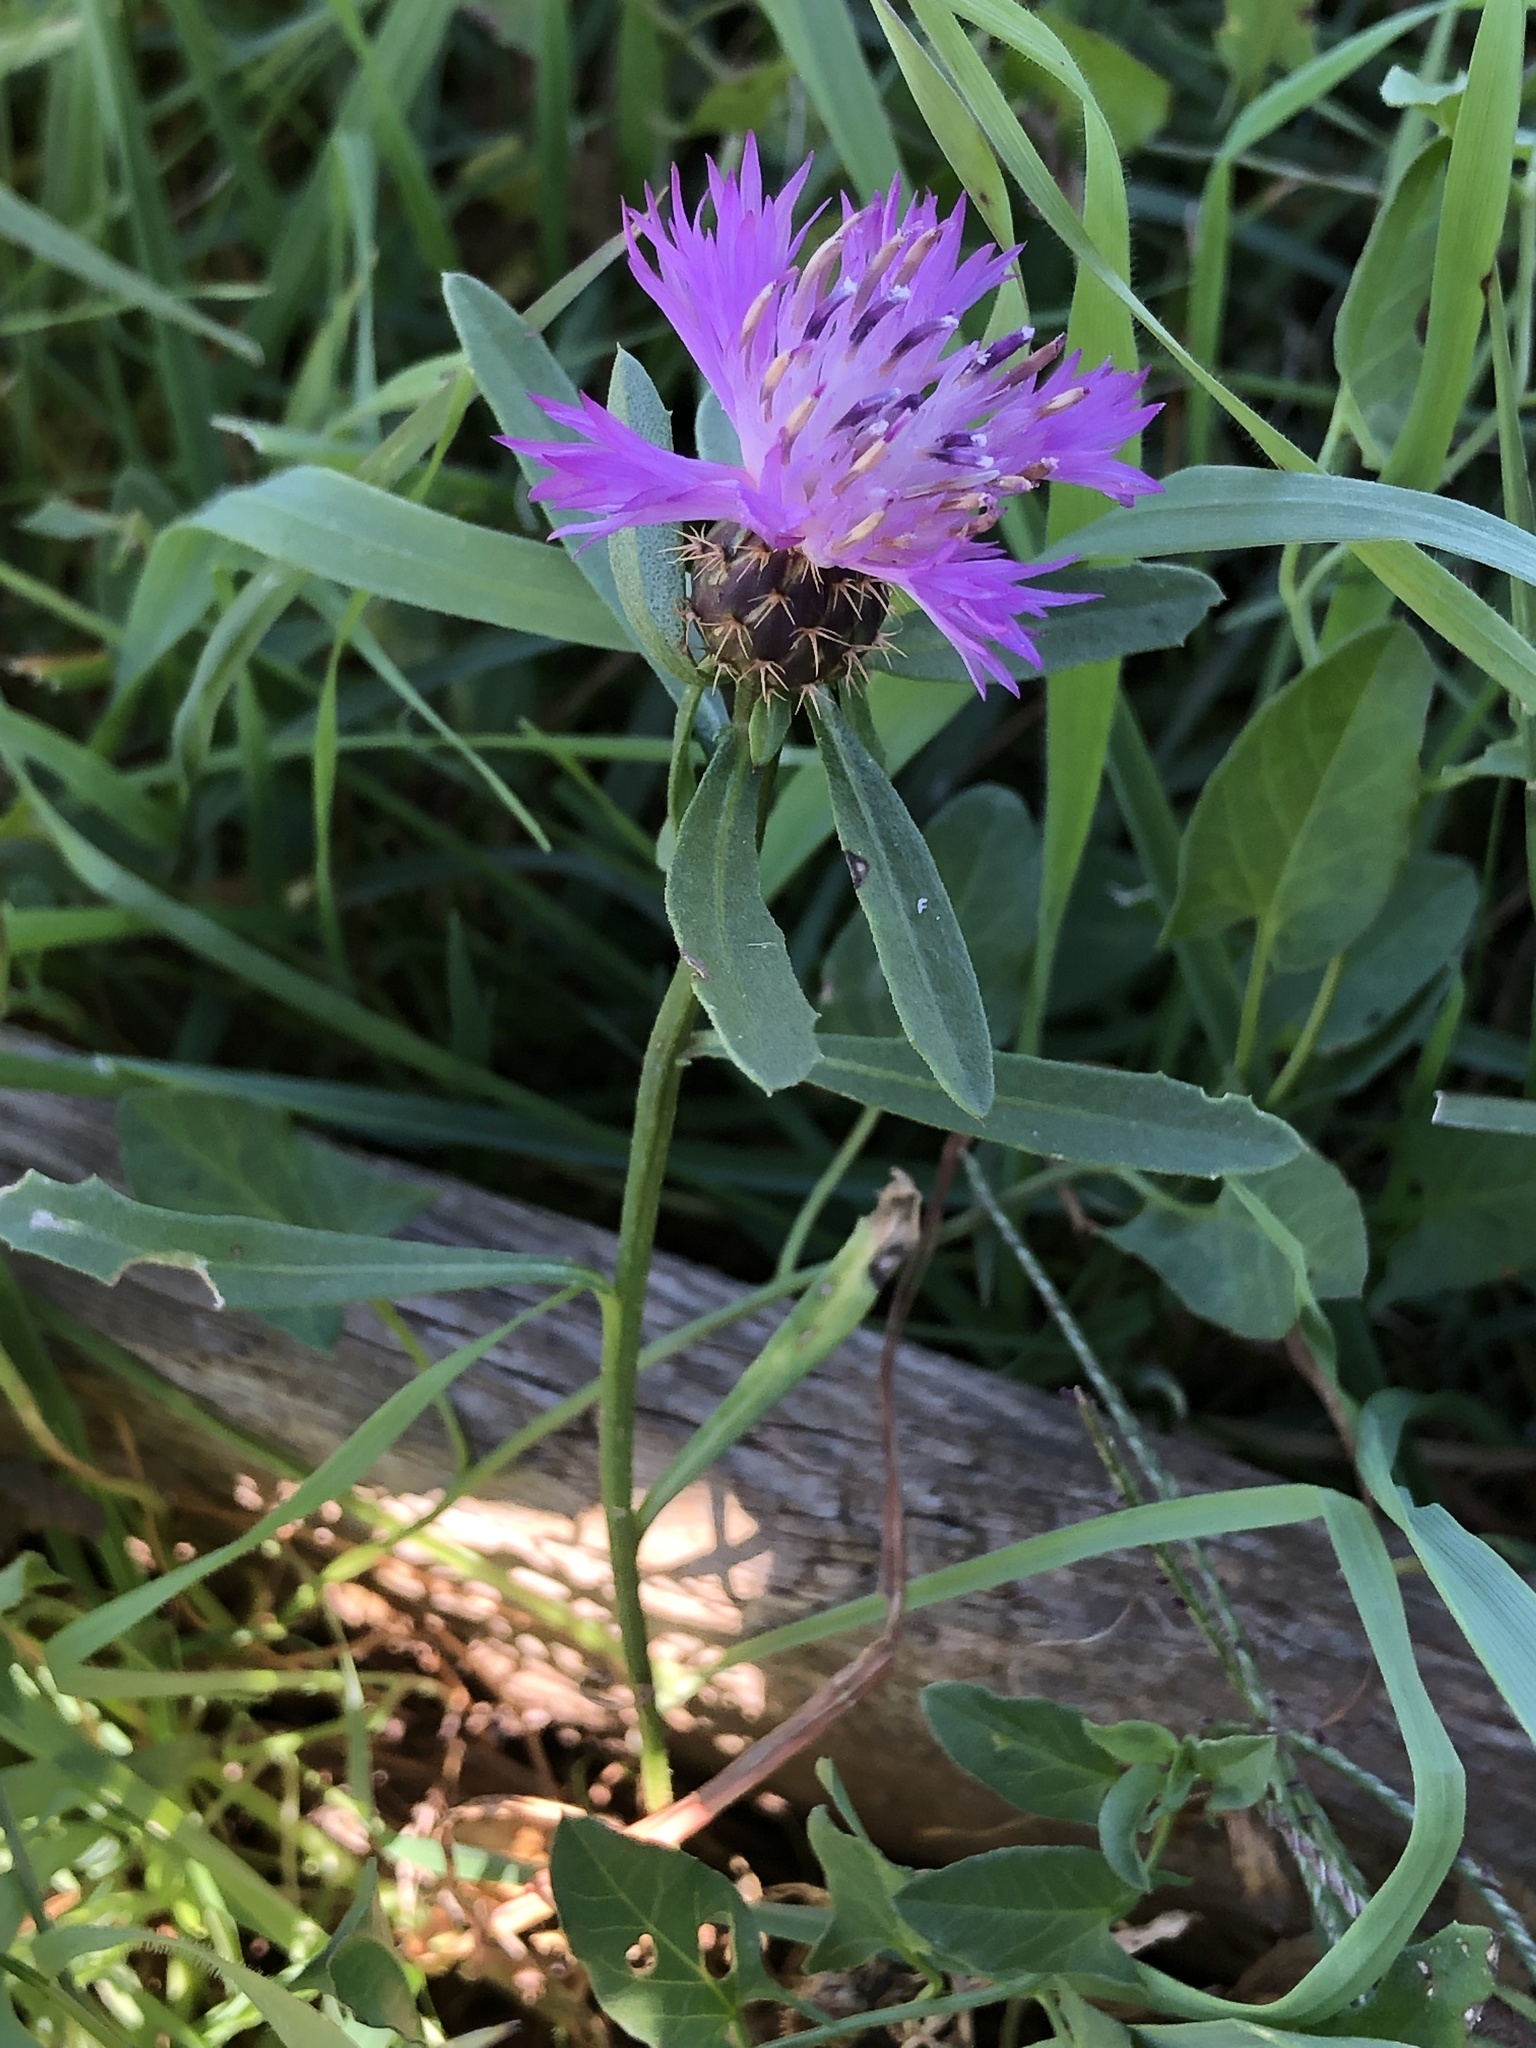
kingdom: Plantae
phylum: Tracheophyta
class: Magnoliopsida
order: Asterales
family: Asteraceae
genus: Centaurea
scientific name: Centaurea aspera
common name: Rough star-thistle
